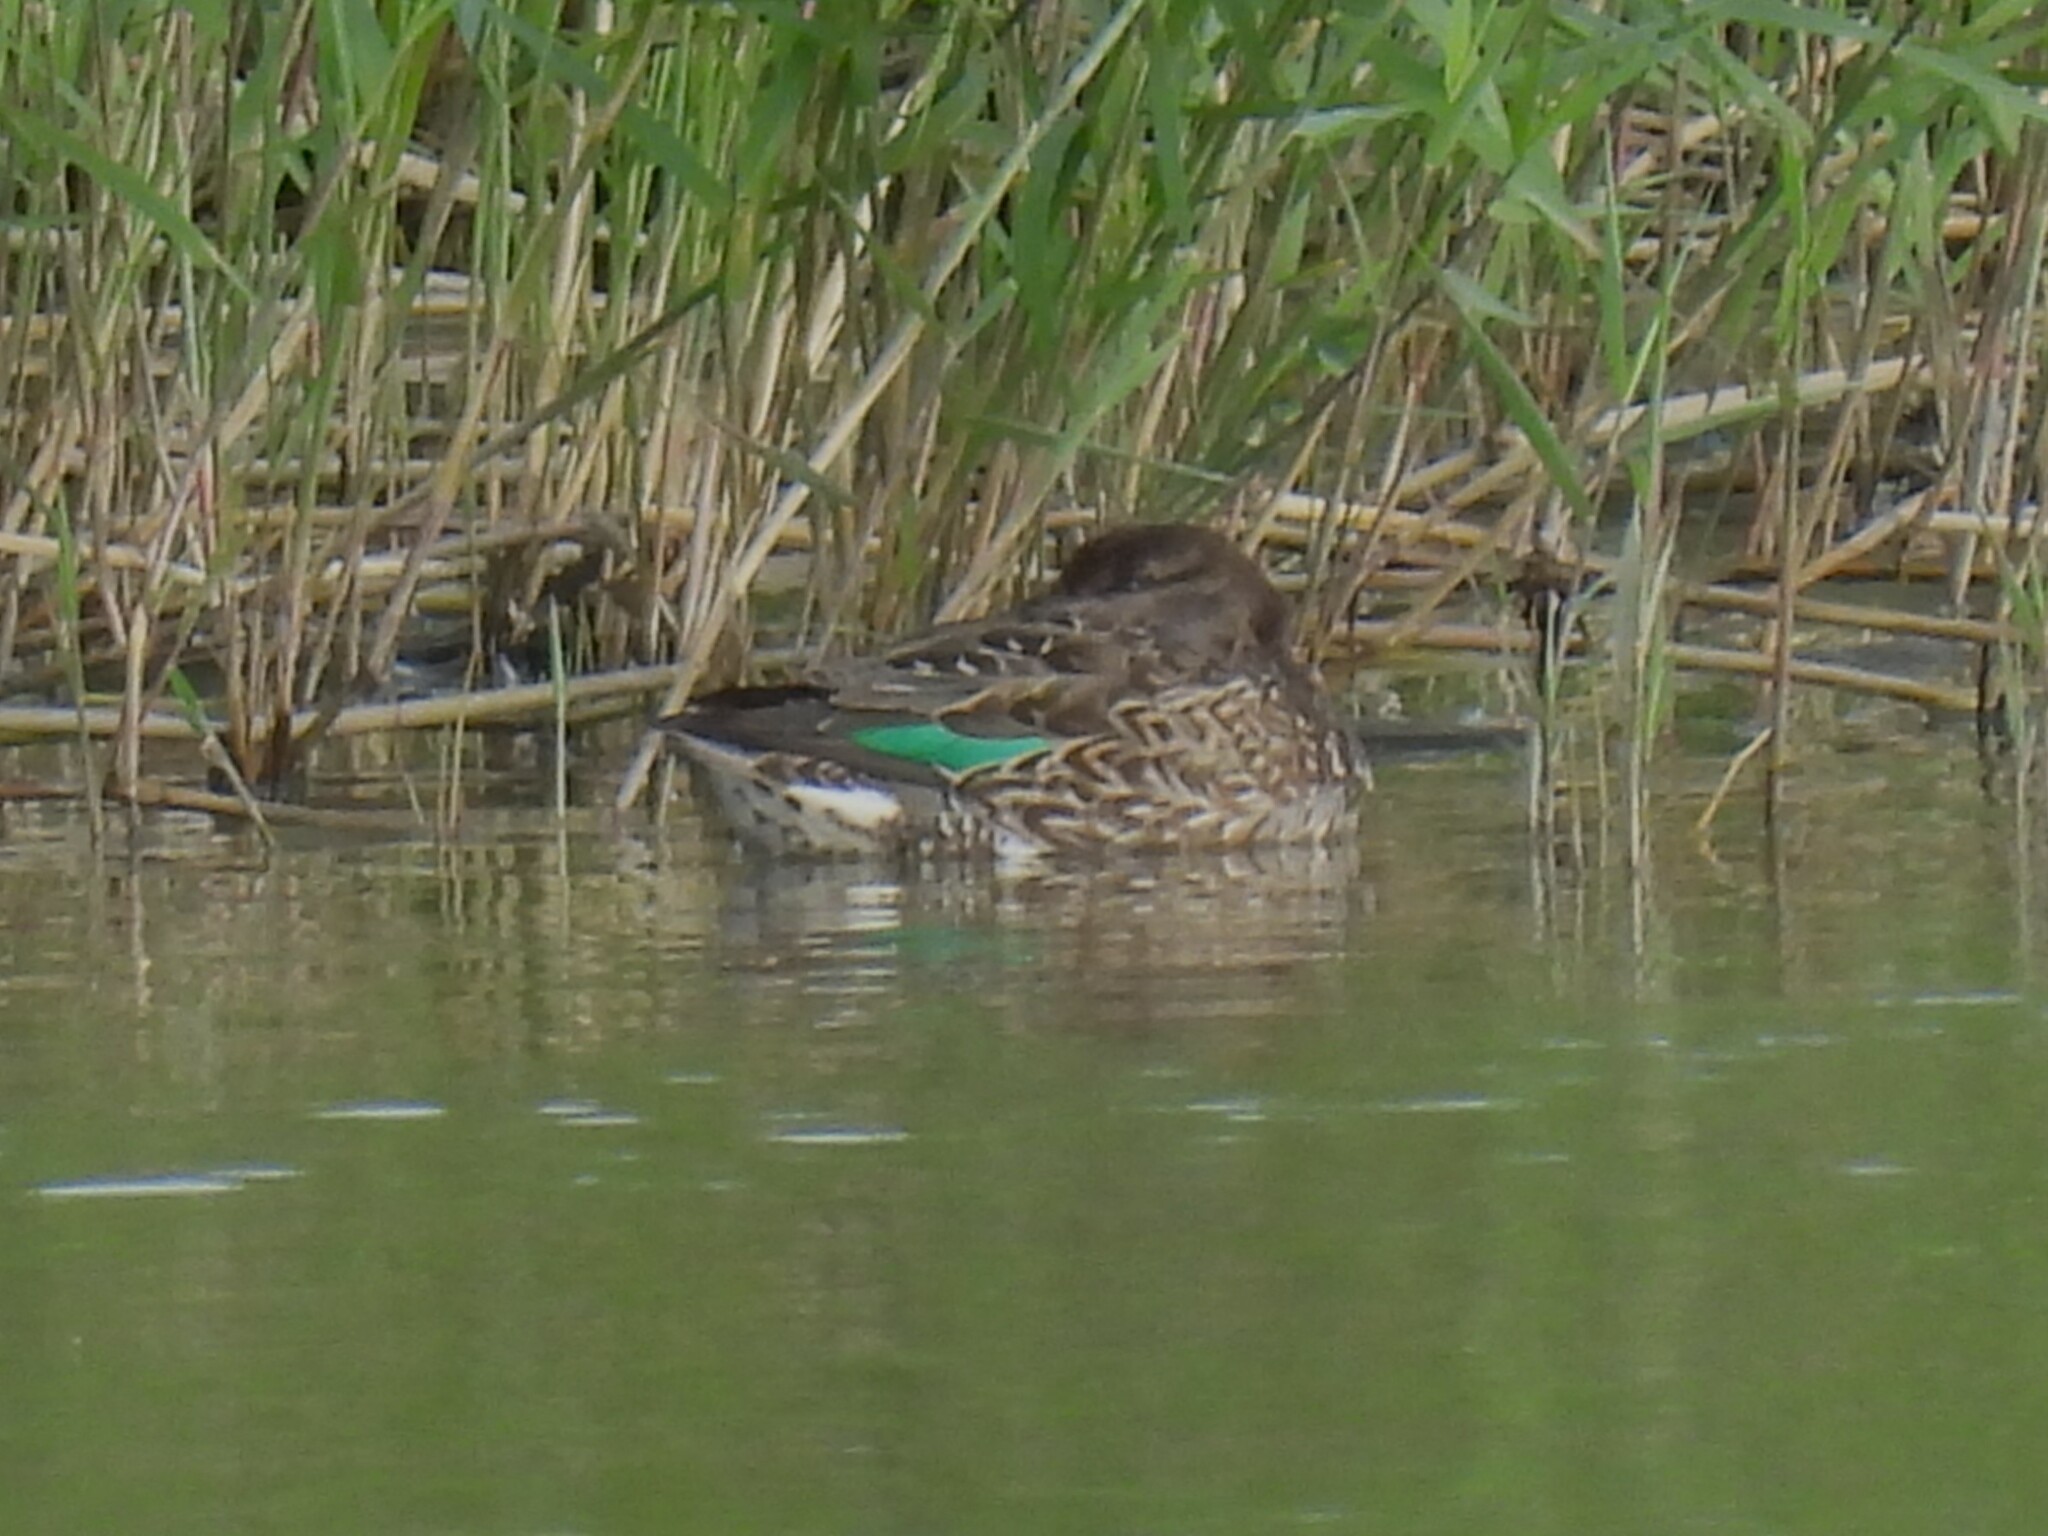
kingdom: Animalia
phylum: Chordata
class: Aves
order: Anseriformes
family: Anatidae
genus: Anas
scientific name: Anas crecca
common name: Eurasian teal
